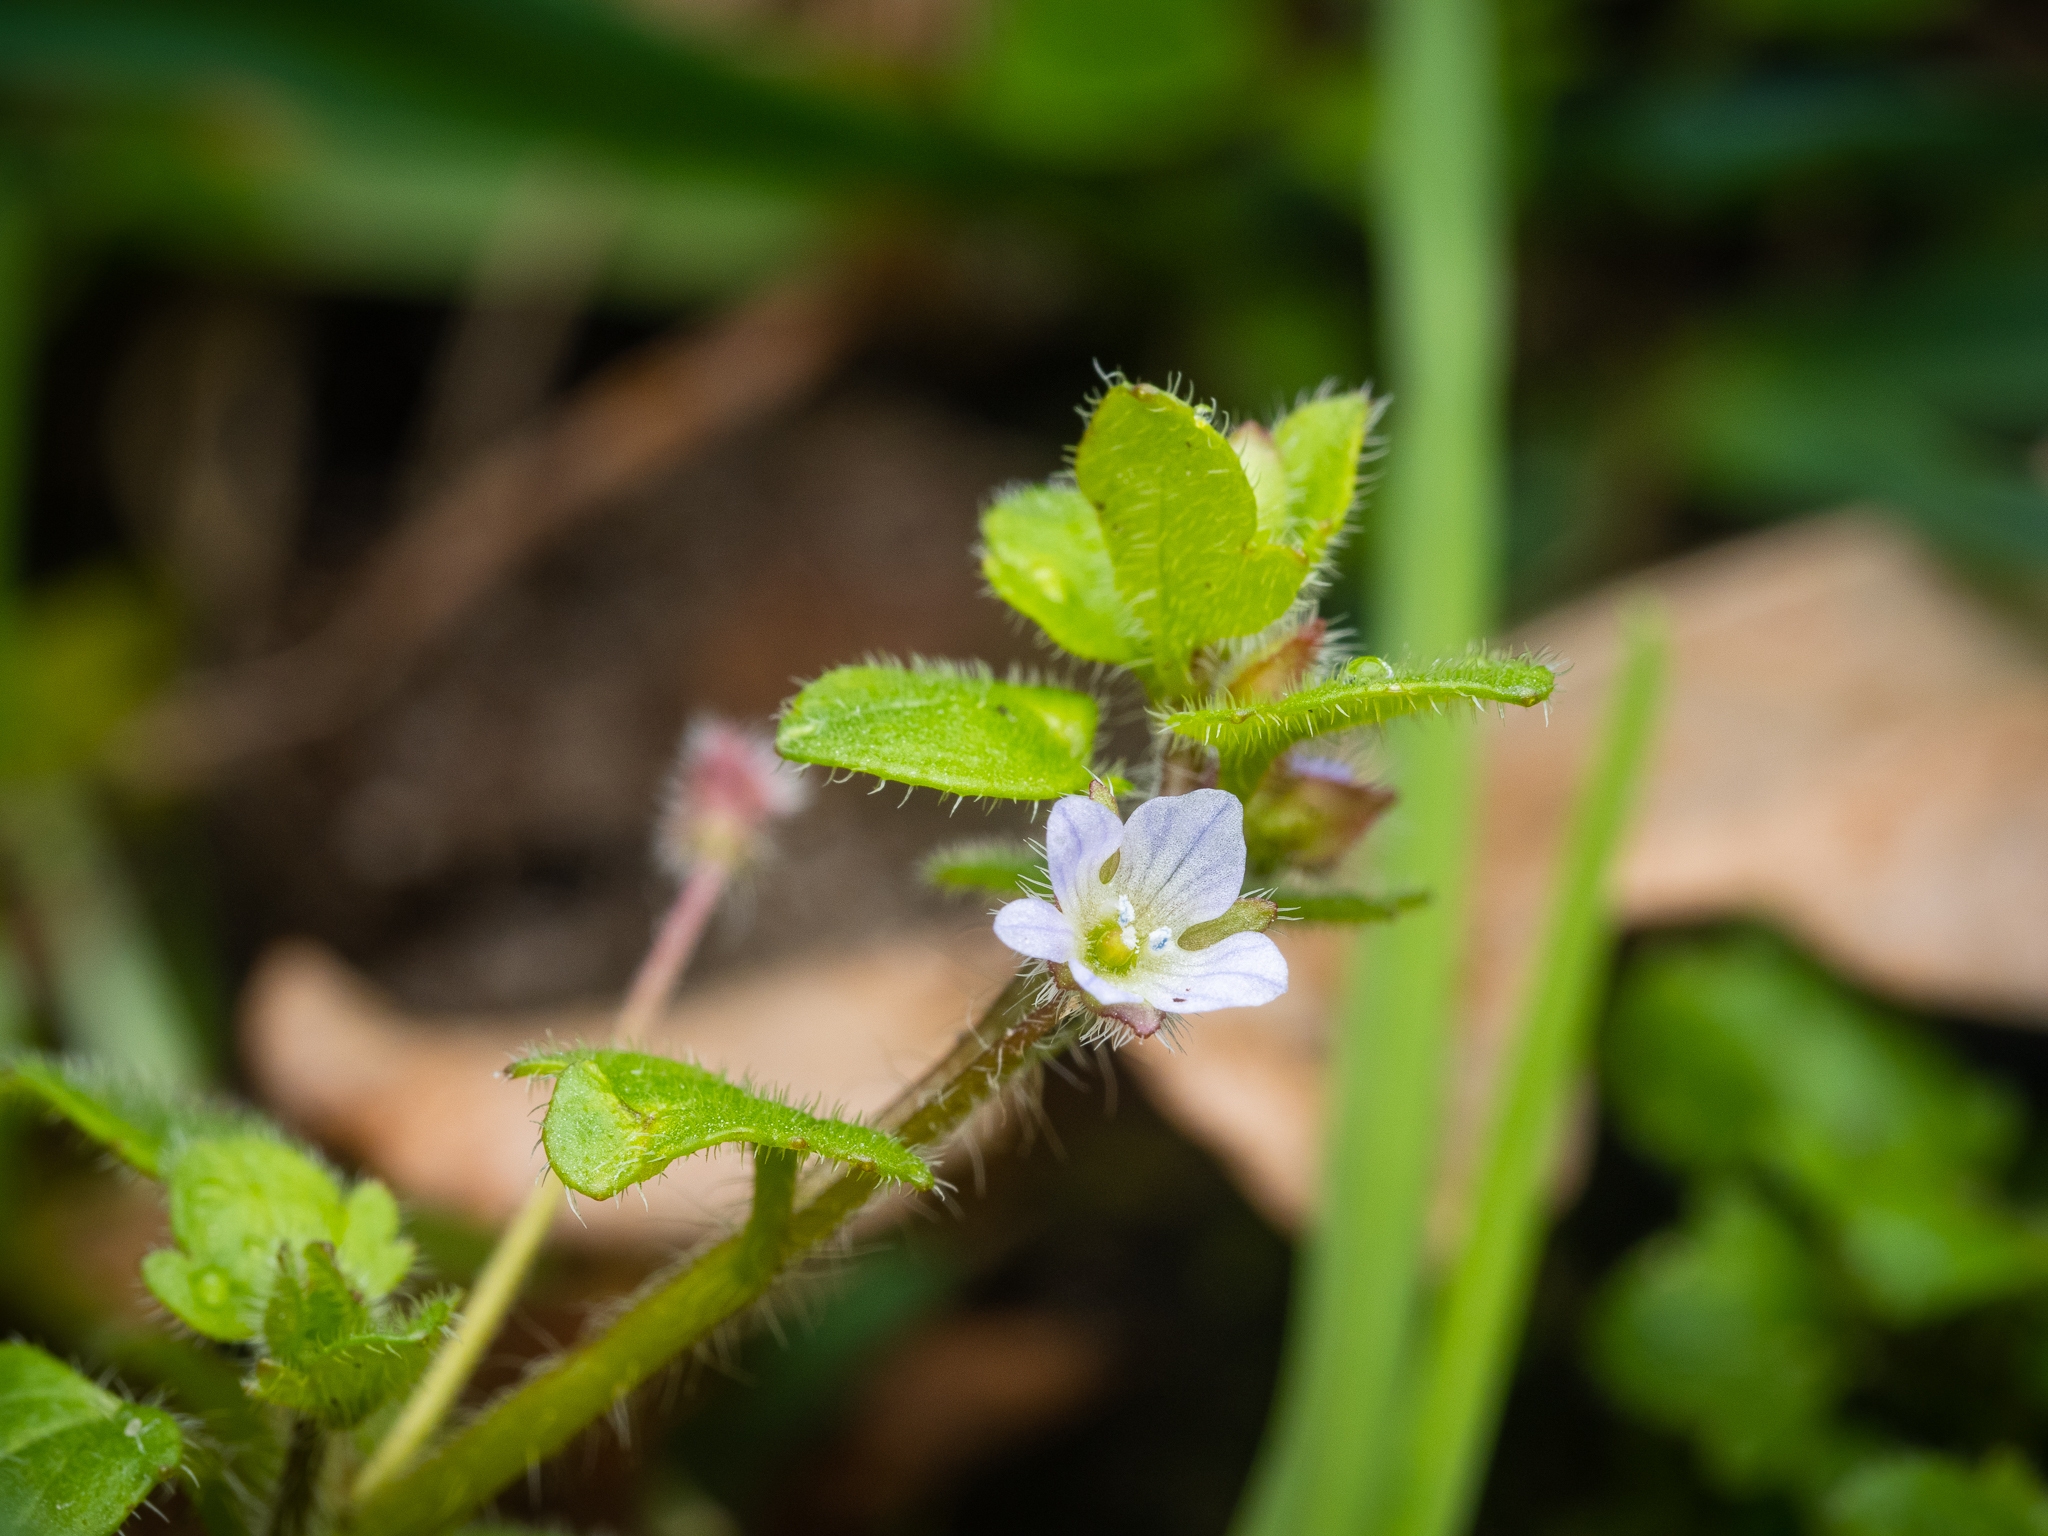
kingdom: Plantae
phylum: Tracheophyta
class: Magnoliopsida
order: Lamiales
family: Plantaginaceae
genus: Veronica
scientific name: Veronica sublobata
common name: False ivy-leaved speedwell
